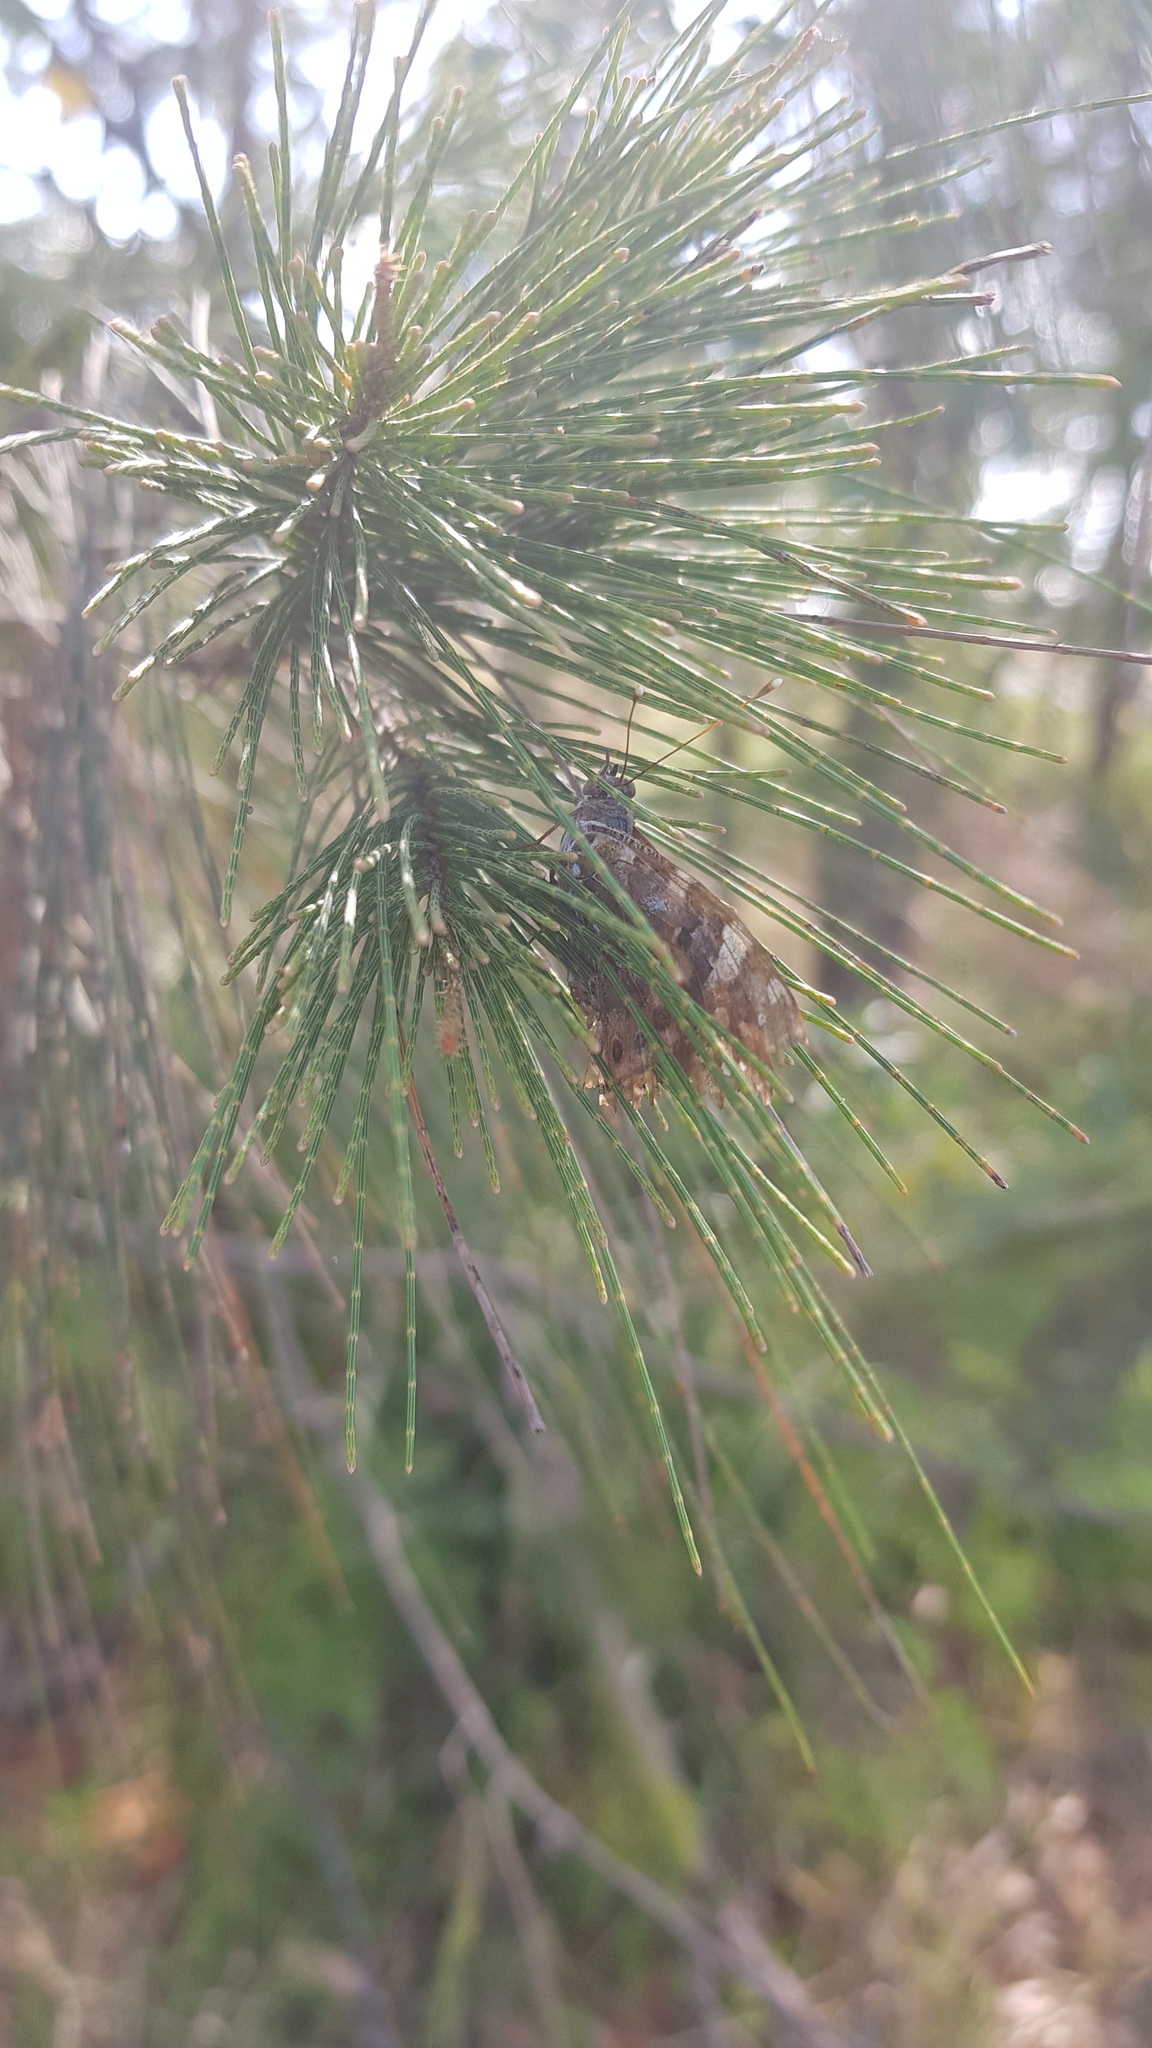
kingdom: Animalia
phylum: Arthropoda
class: Insecta
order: Lepidoptera
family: Nymphalidae
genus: Vanessa
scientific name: Vanessa kershawi
